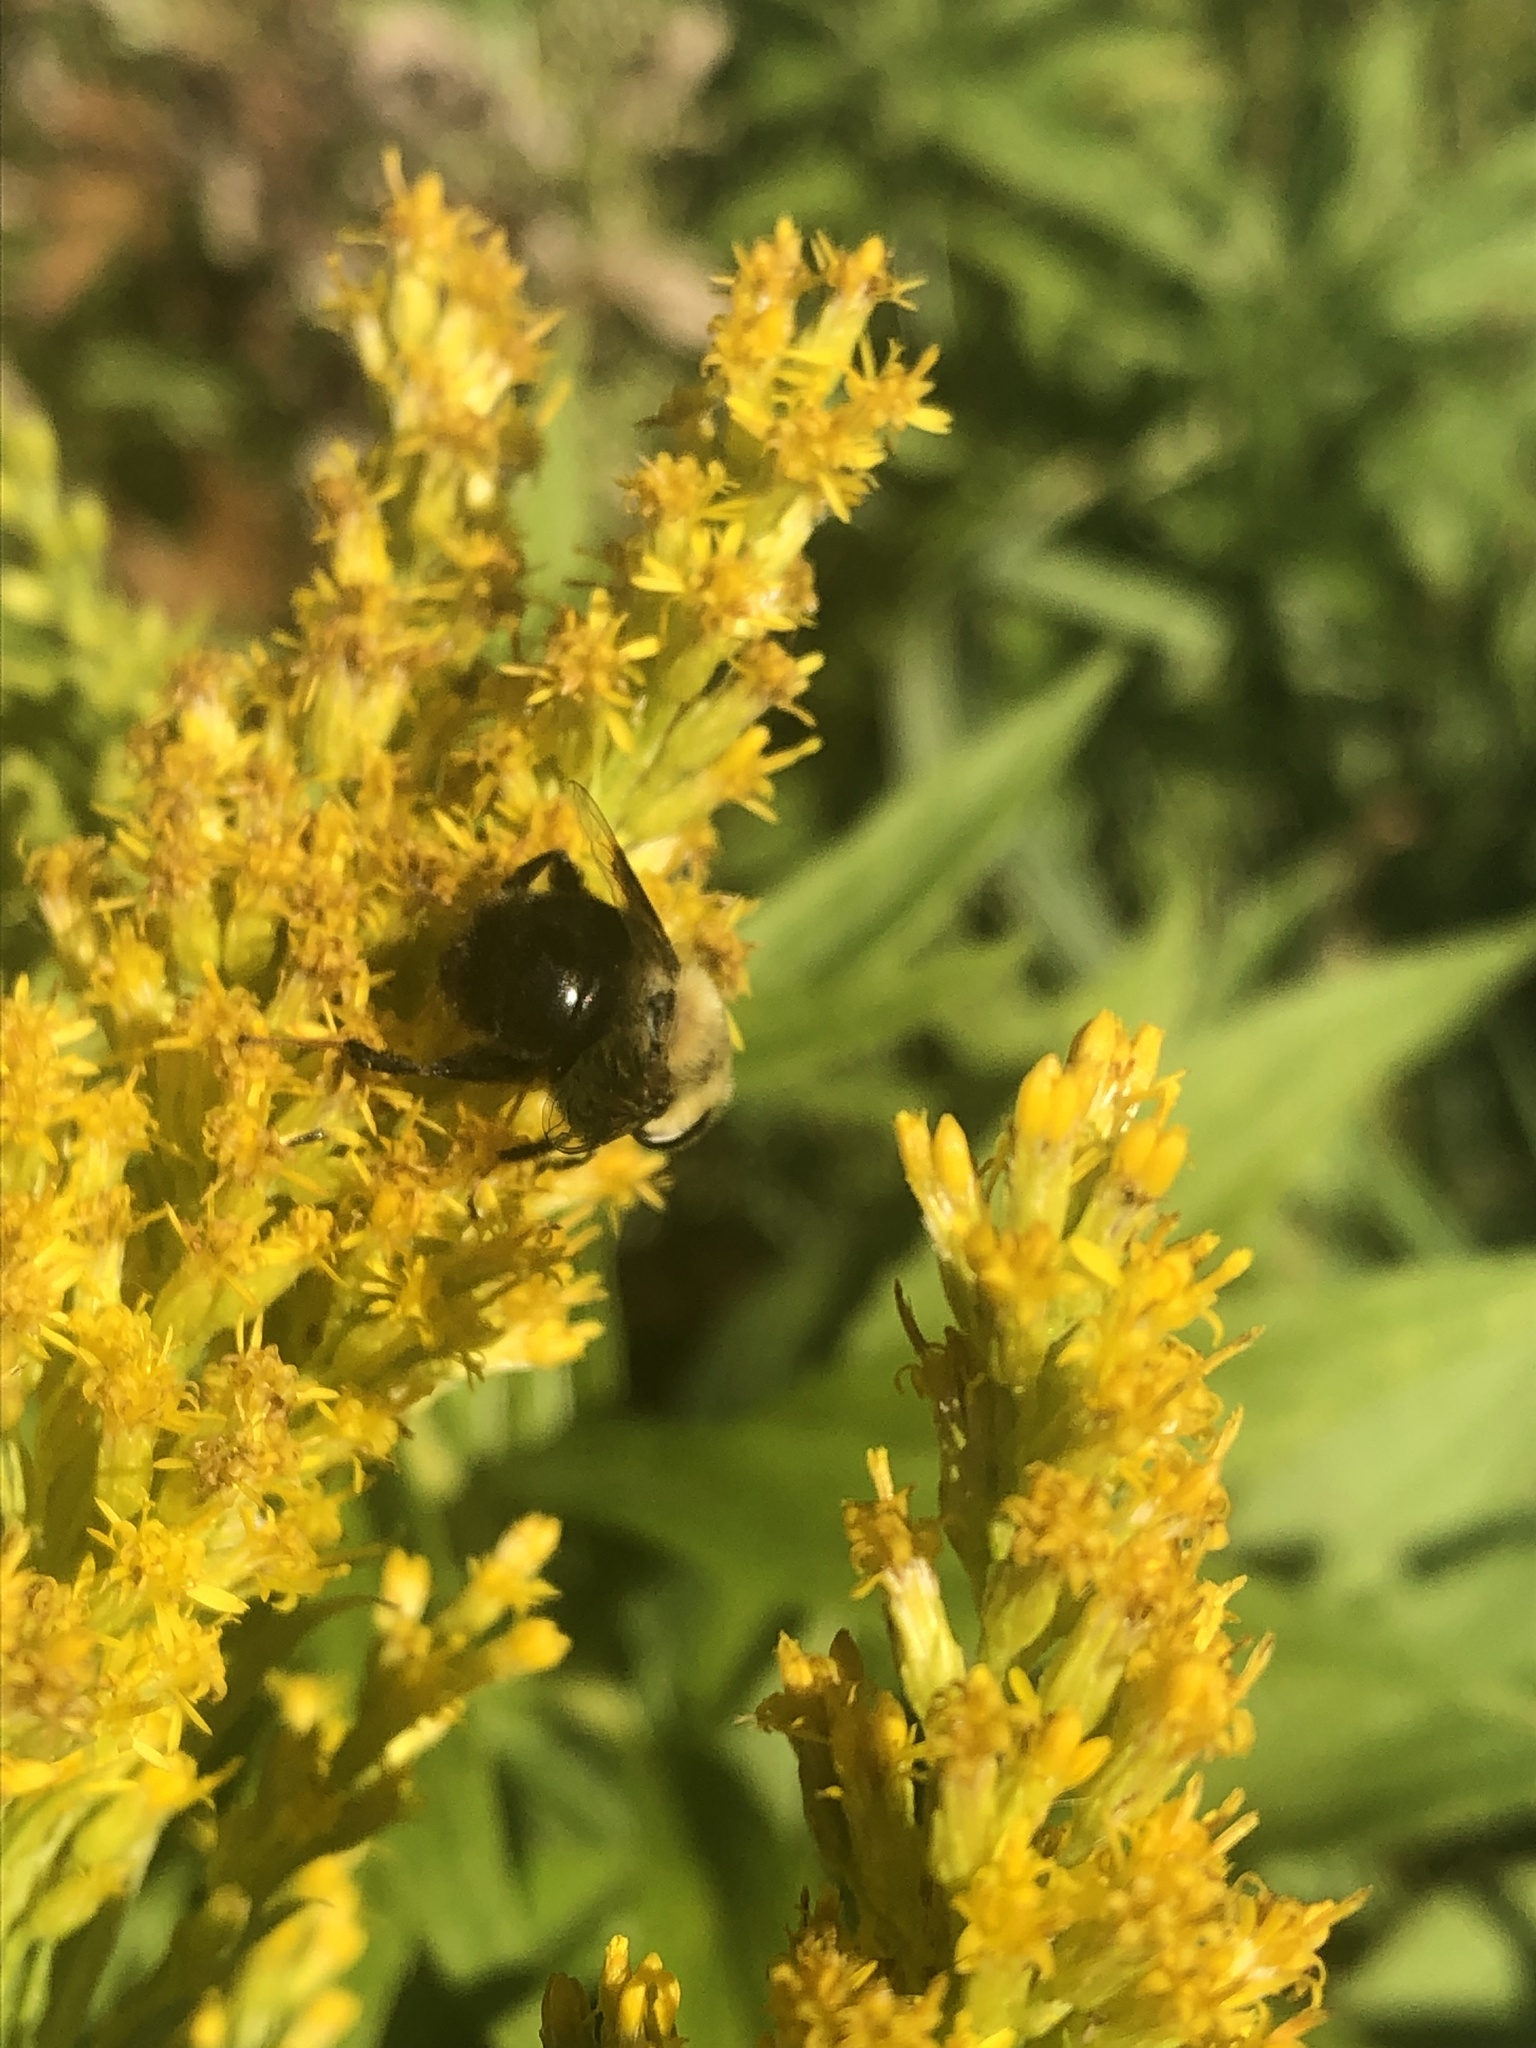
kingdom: Animalia
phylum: Arthropoda
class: Insecta
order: Diptera
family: Syrphidae
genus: Eristalis
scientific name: Eristalis flavipes
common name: Orange-legged drone fly
